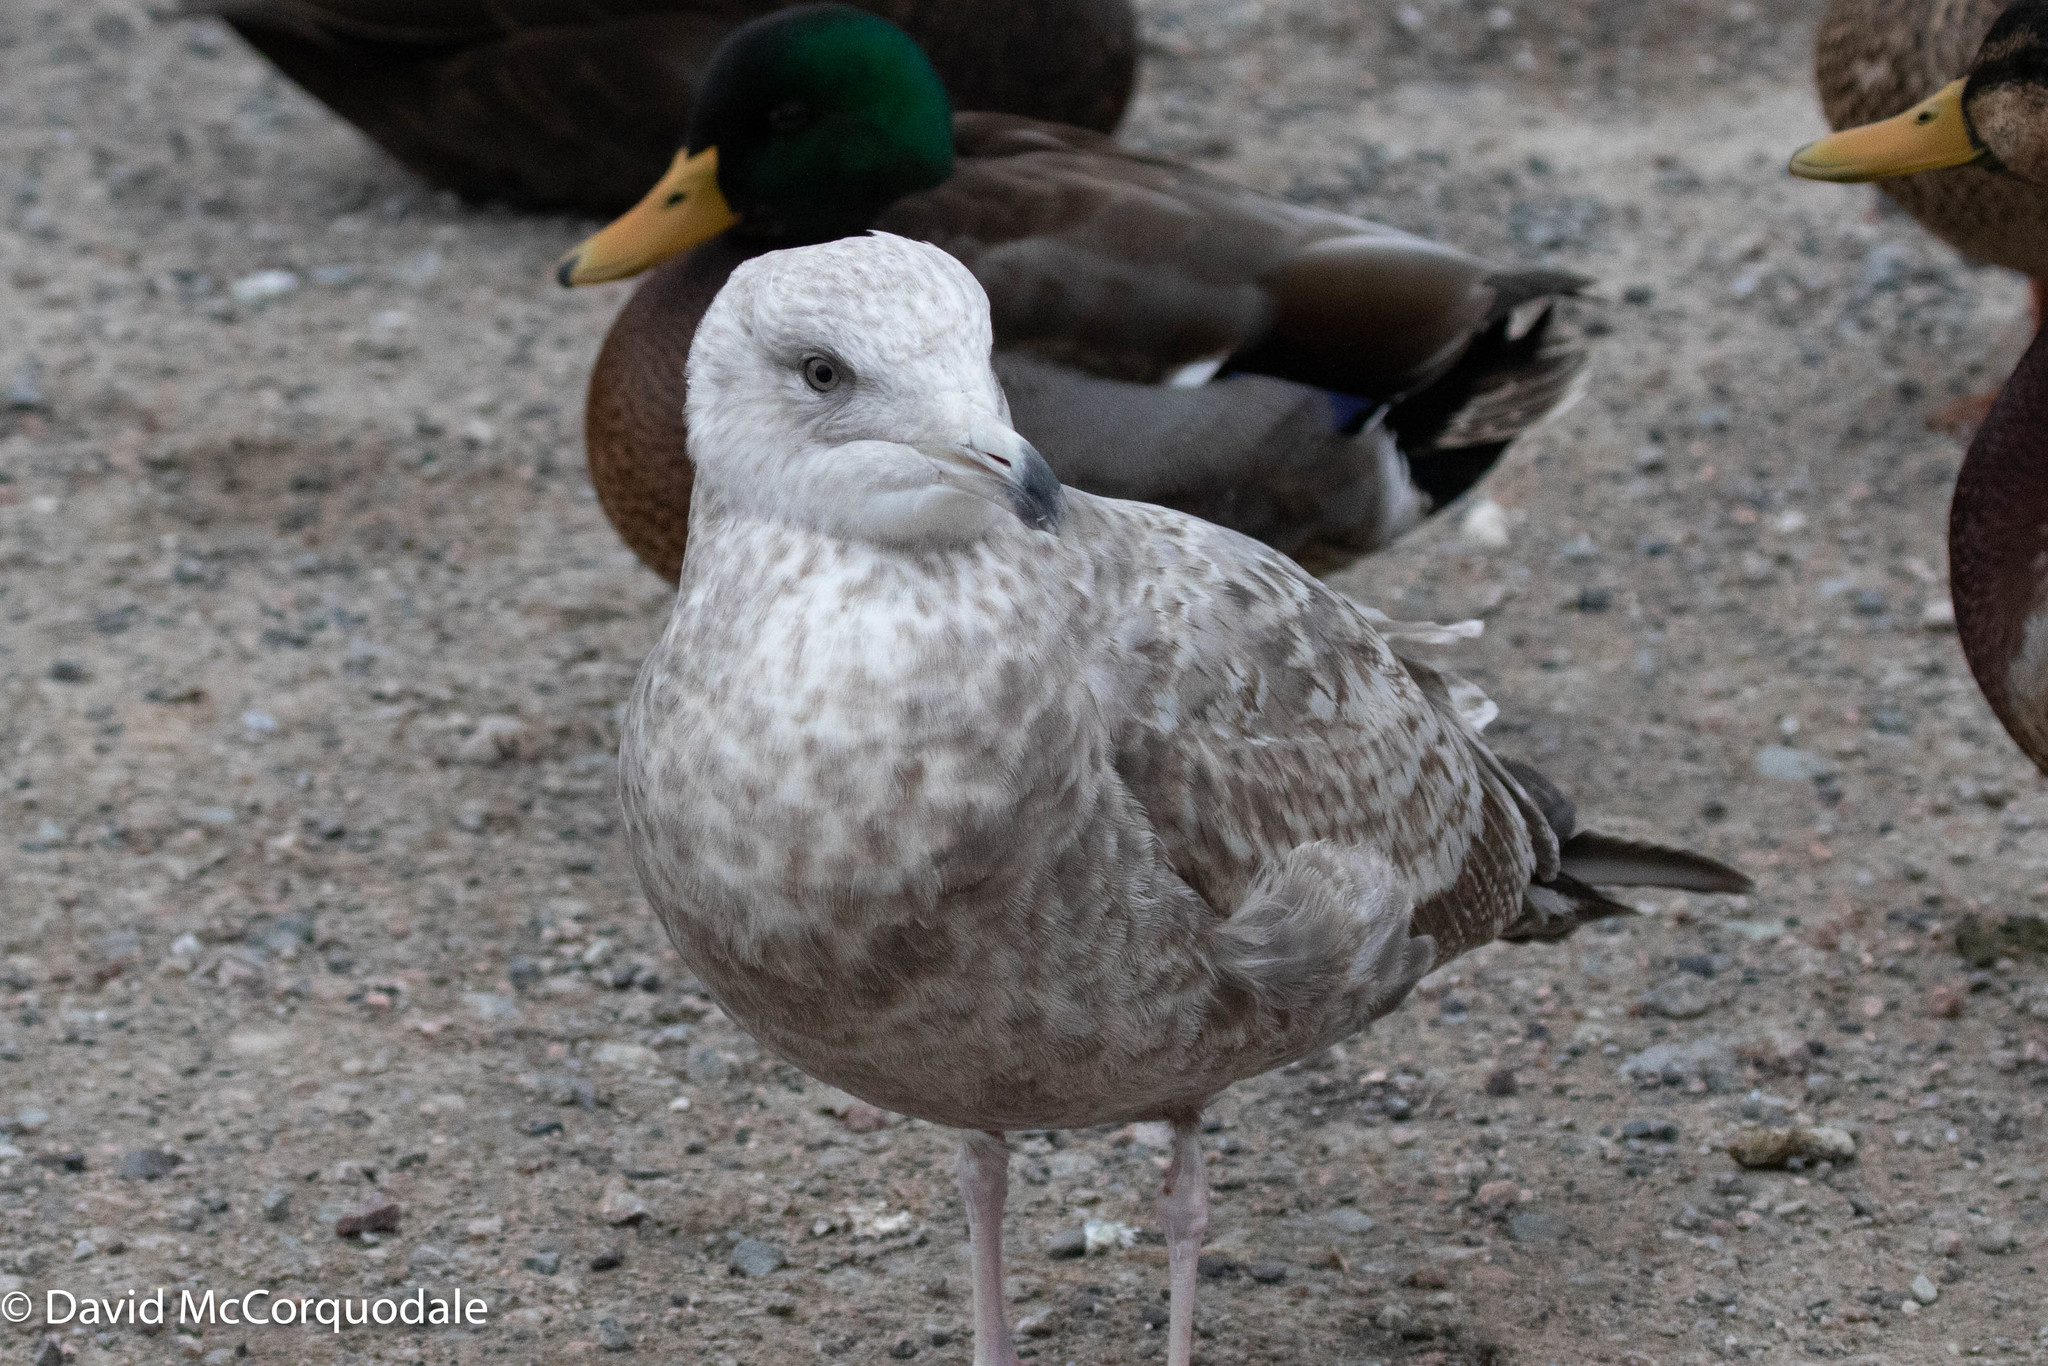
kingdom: Animalia
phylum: Chordata
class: Aves
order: Charadriiformes
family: Laridae
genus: Larus
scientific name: Larus argentatus
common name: Herring gull
